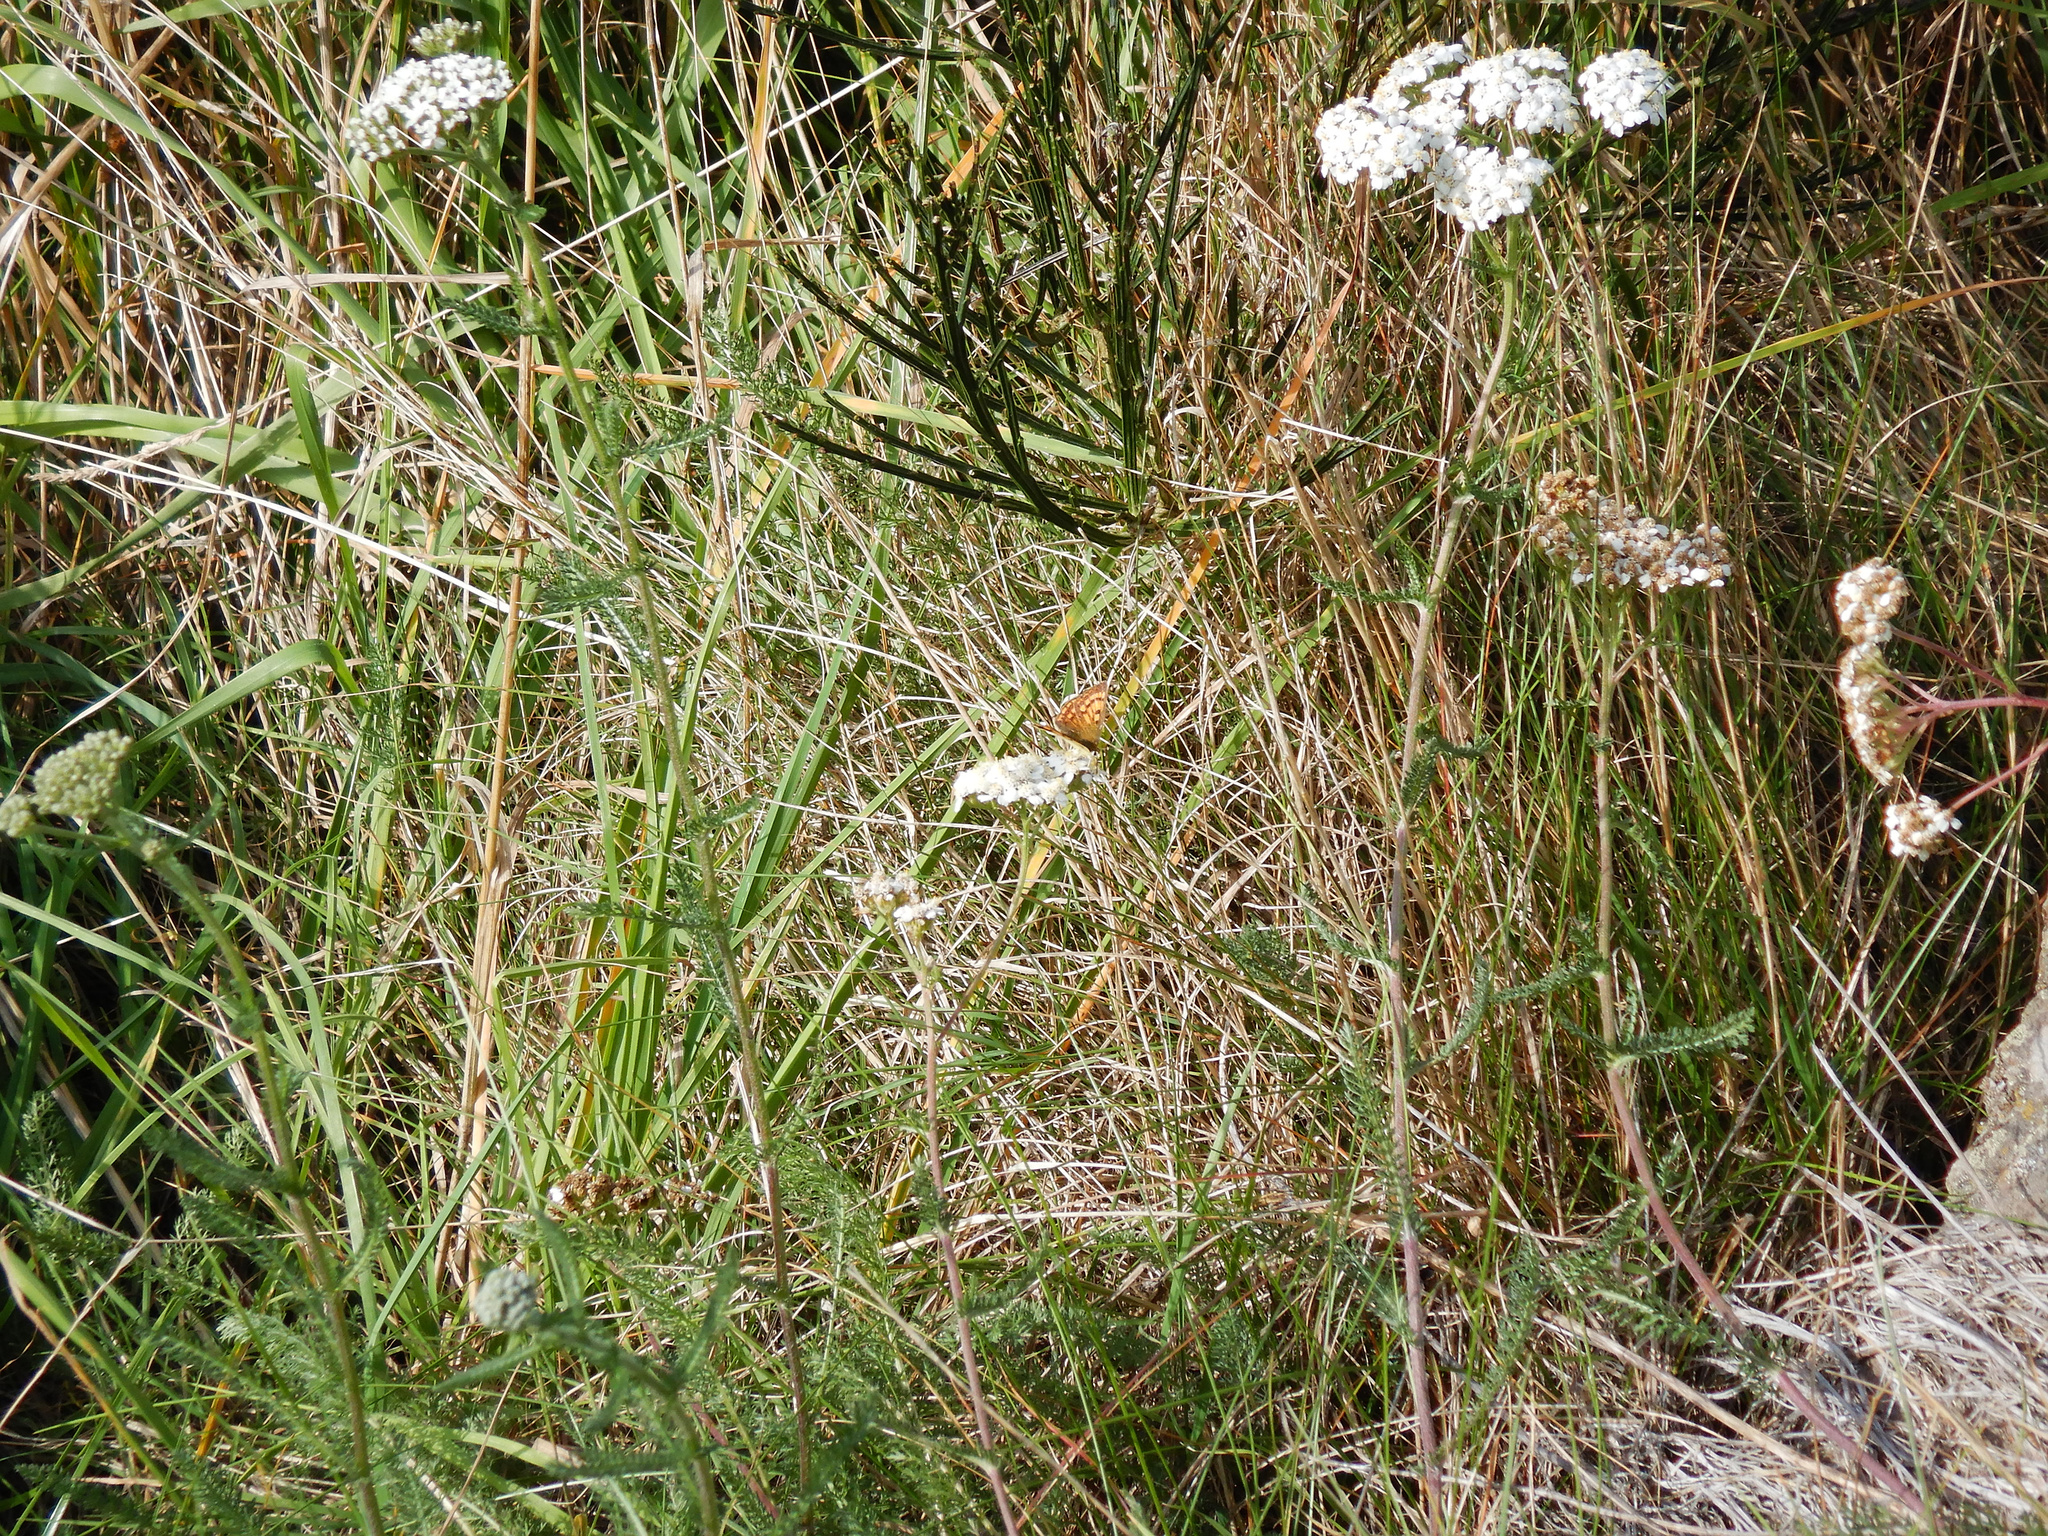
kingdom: Plantae
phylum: Tracheophyta
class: Magnoliopsida
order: Asterales
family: Asteraceae
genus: Achillea
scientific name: Achillea millefolium
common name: Yarrow
